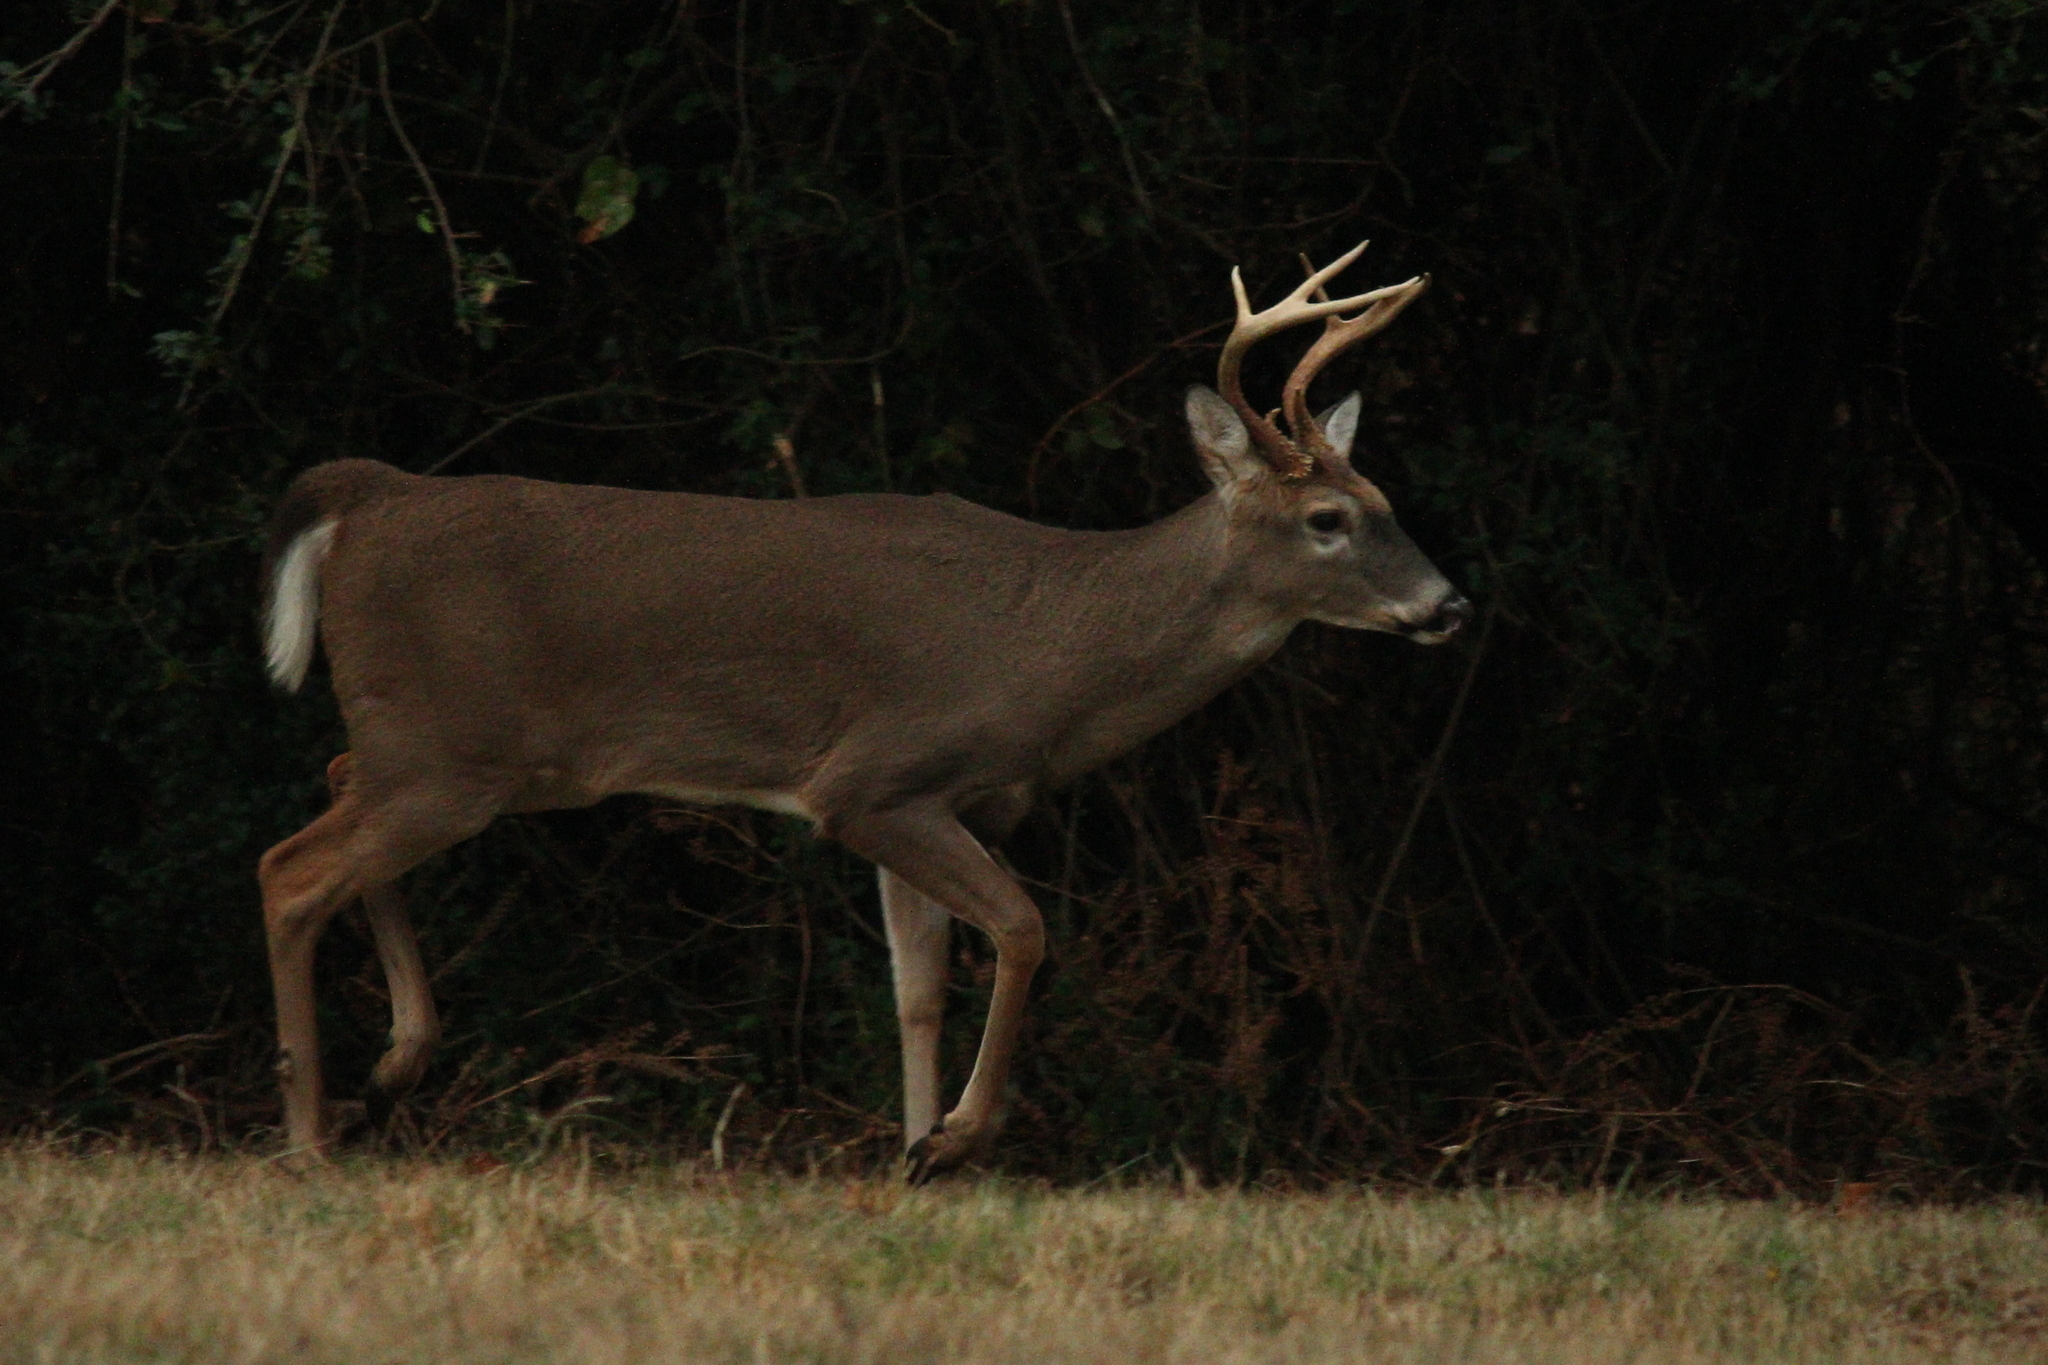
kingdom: Animalia
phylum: Chordata
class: Mammalia
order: Artiodactyla
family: Cervidae
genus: Odocoileus
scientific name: Odocoileus virginianus
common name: White-tailed deer
